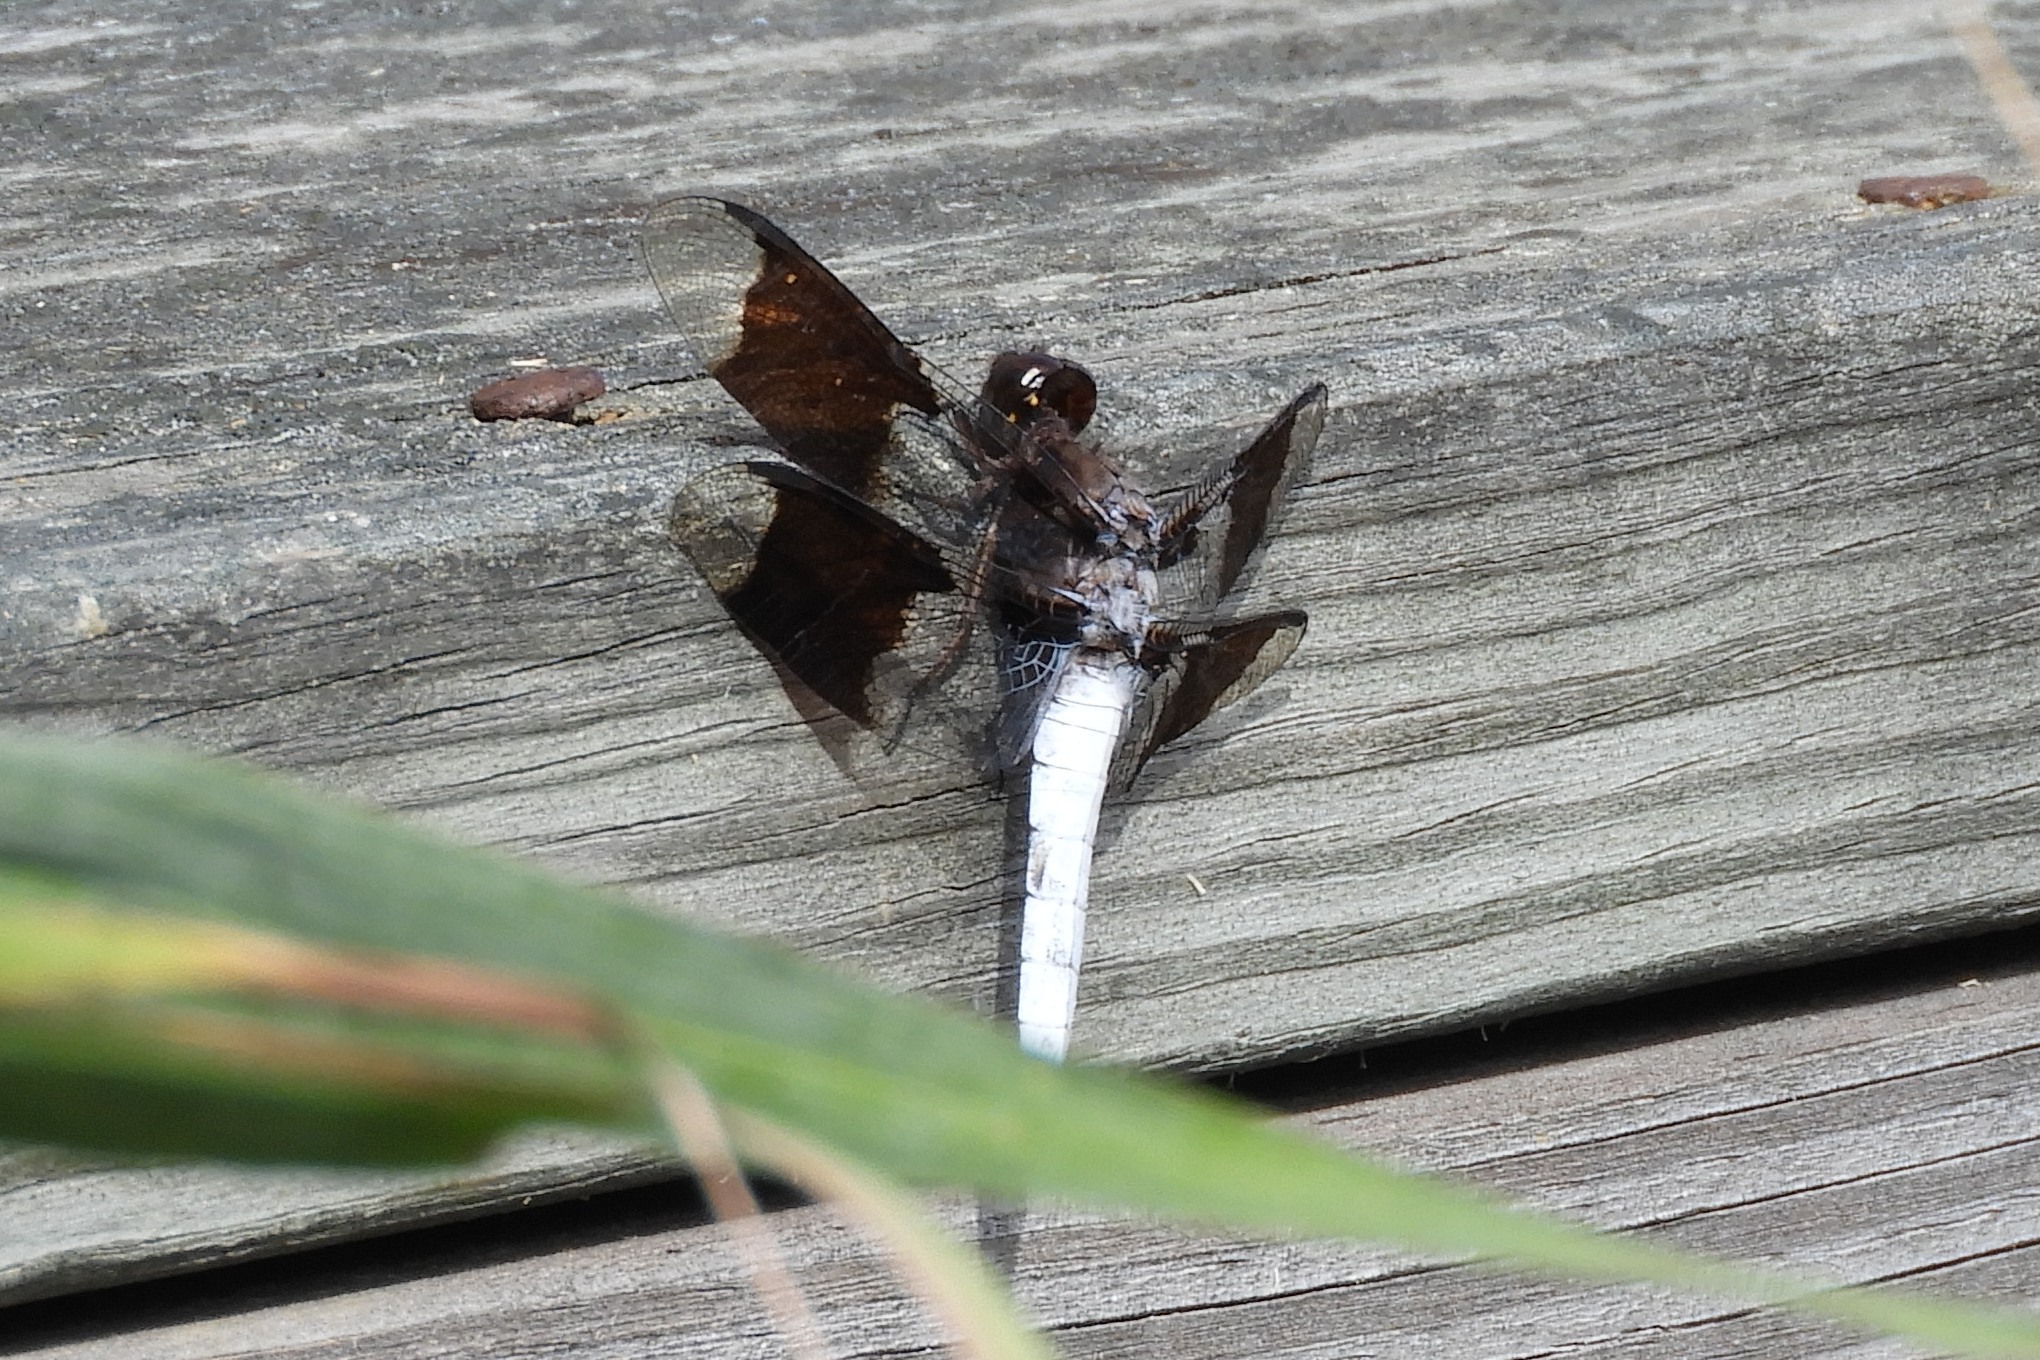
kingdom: Animalia
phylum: Arthropoda
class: Insecta
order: Odonata
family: Libellulidae
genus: Plathemis
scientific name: Plathemis lydia
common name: Common whitetail
